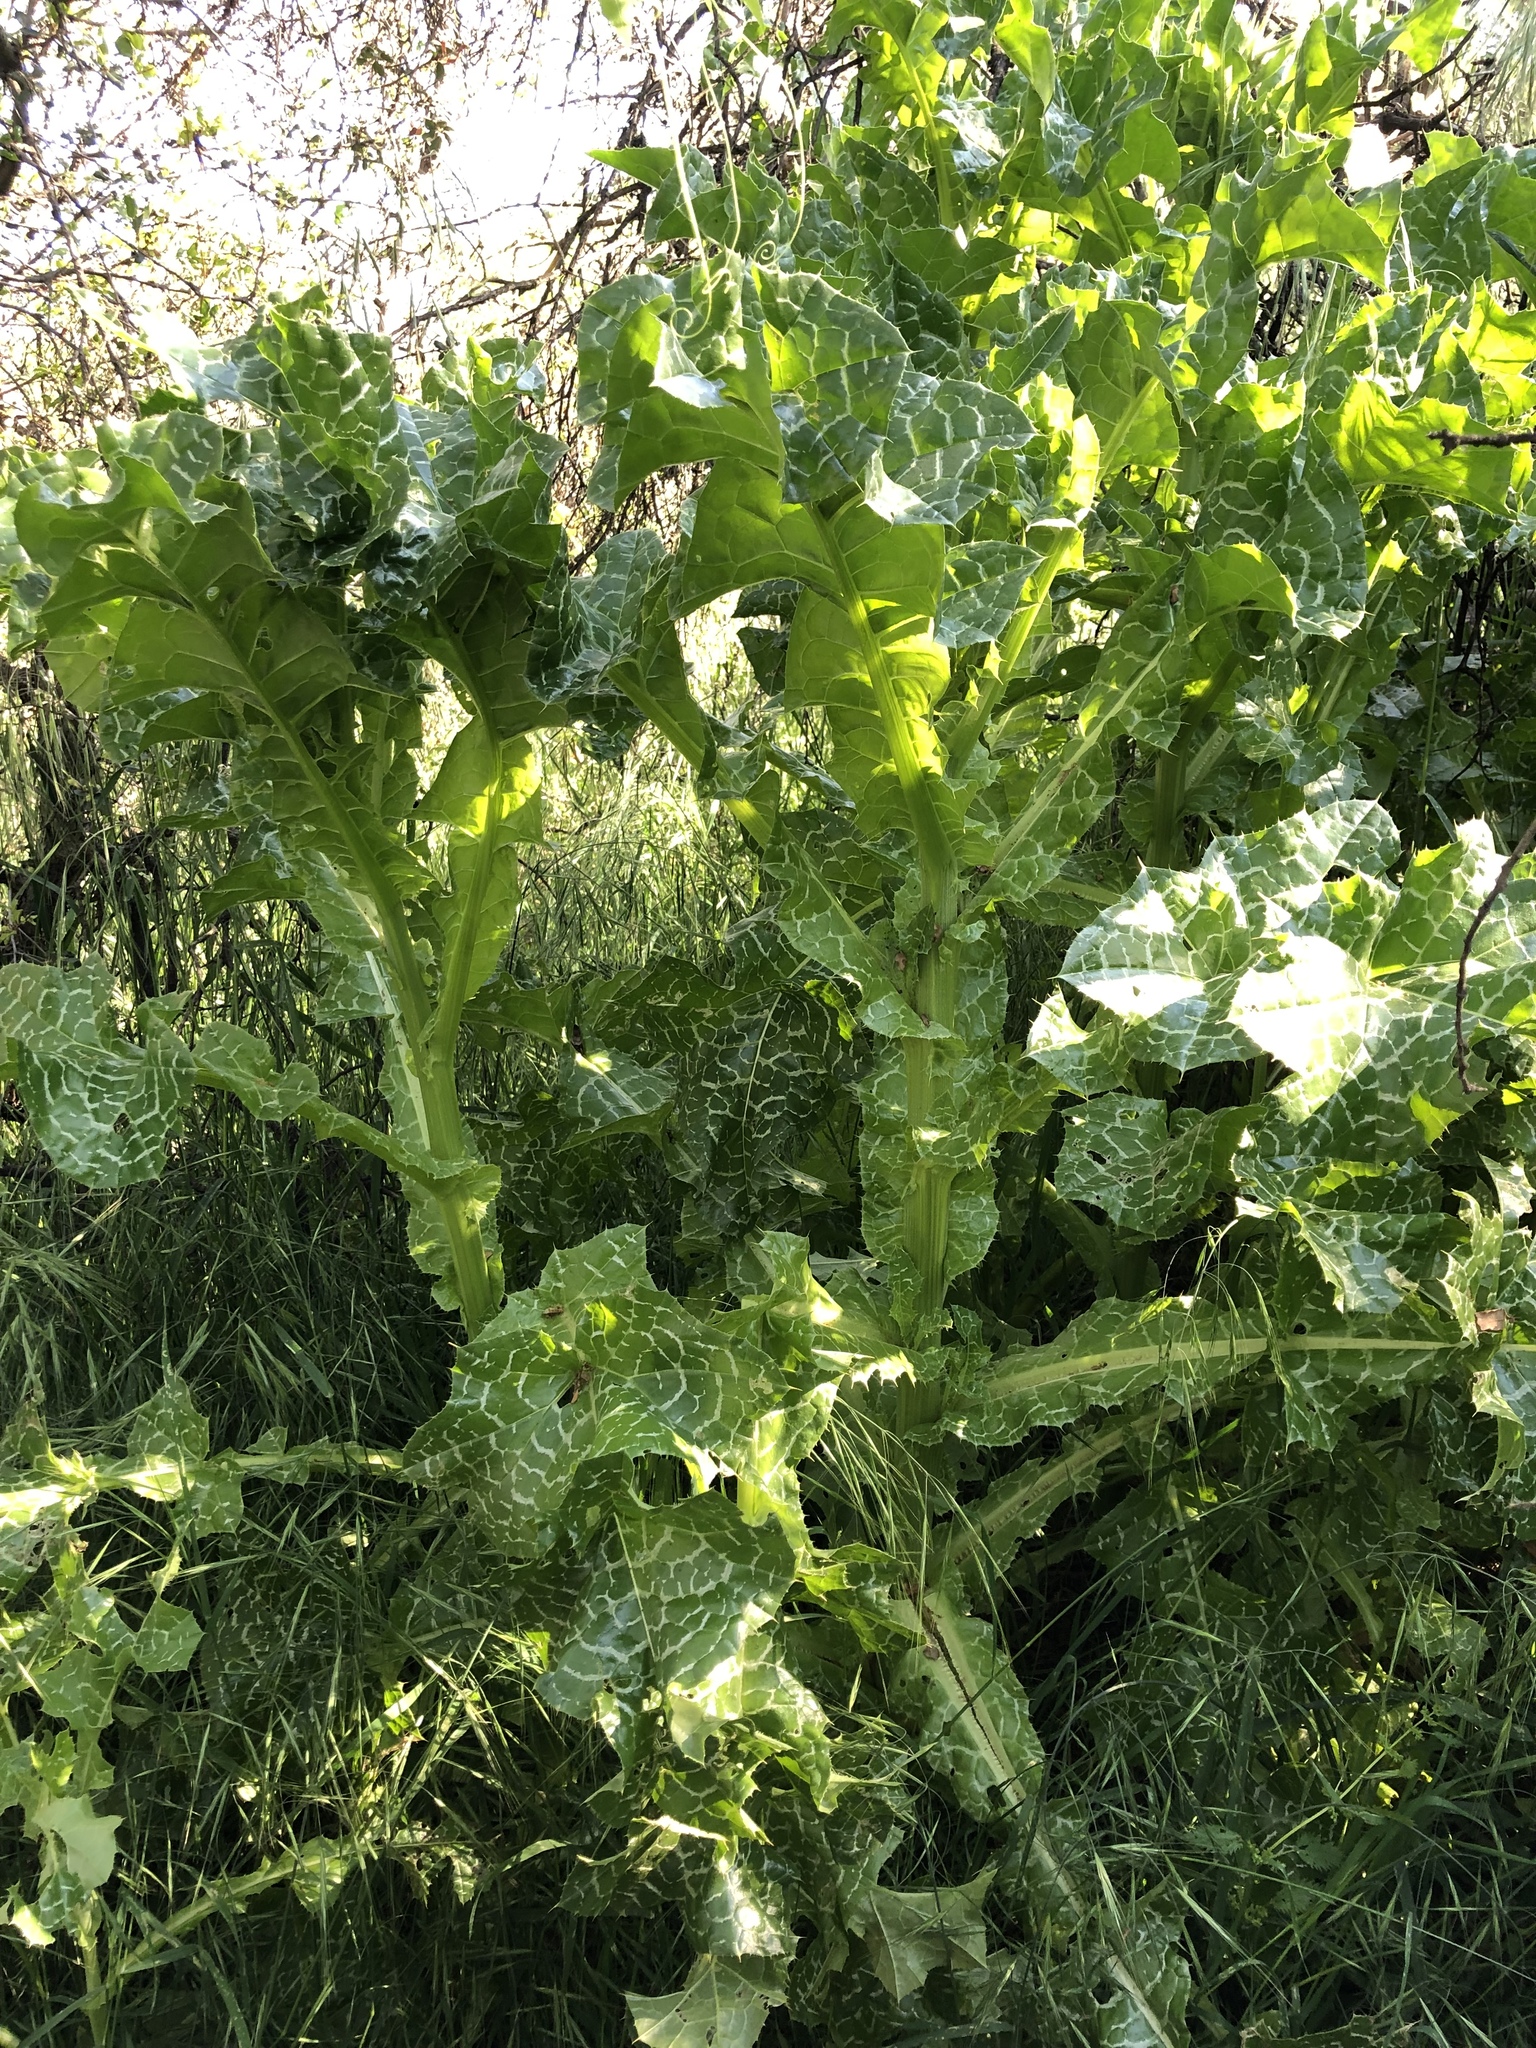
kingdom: Plantae
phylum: Tracheophyta
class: Magnoliopsida
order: Asterales
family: Asteraceae
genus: Silybum
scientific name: Silybum marianum
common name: Milk thistle
